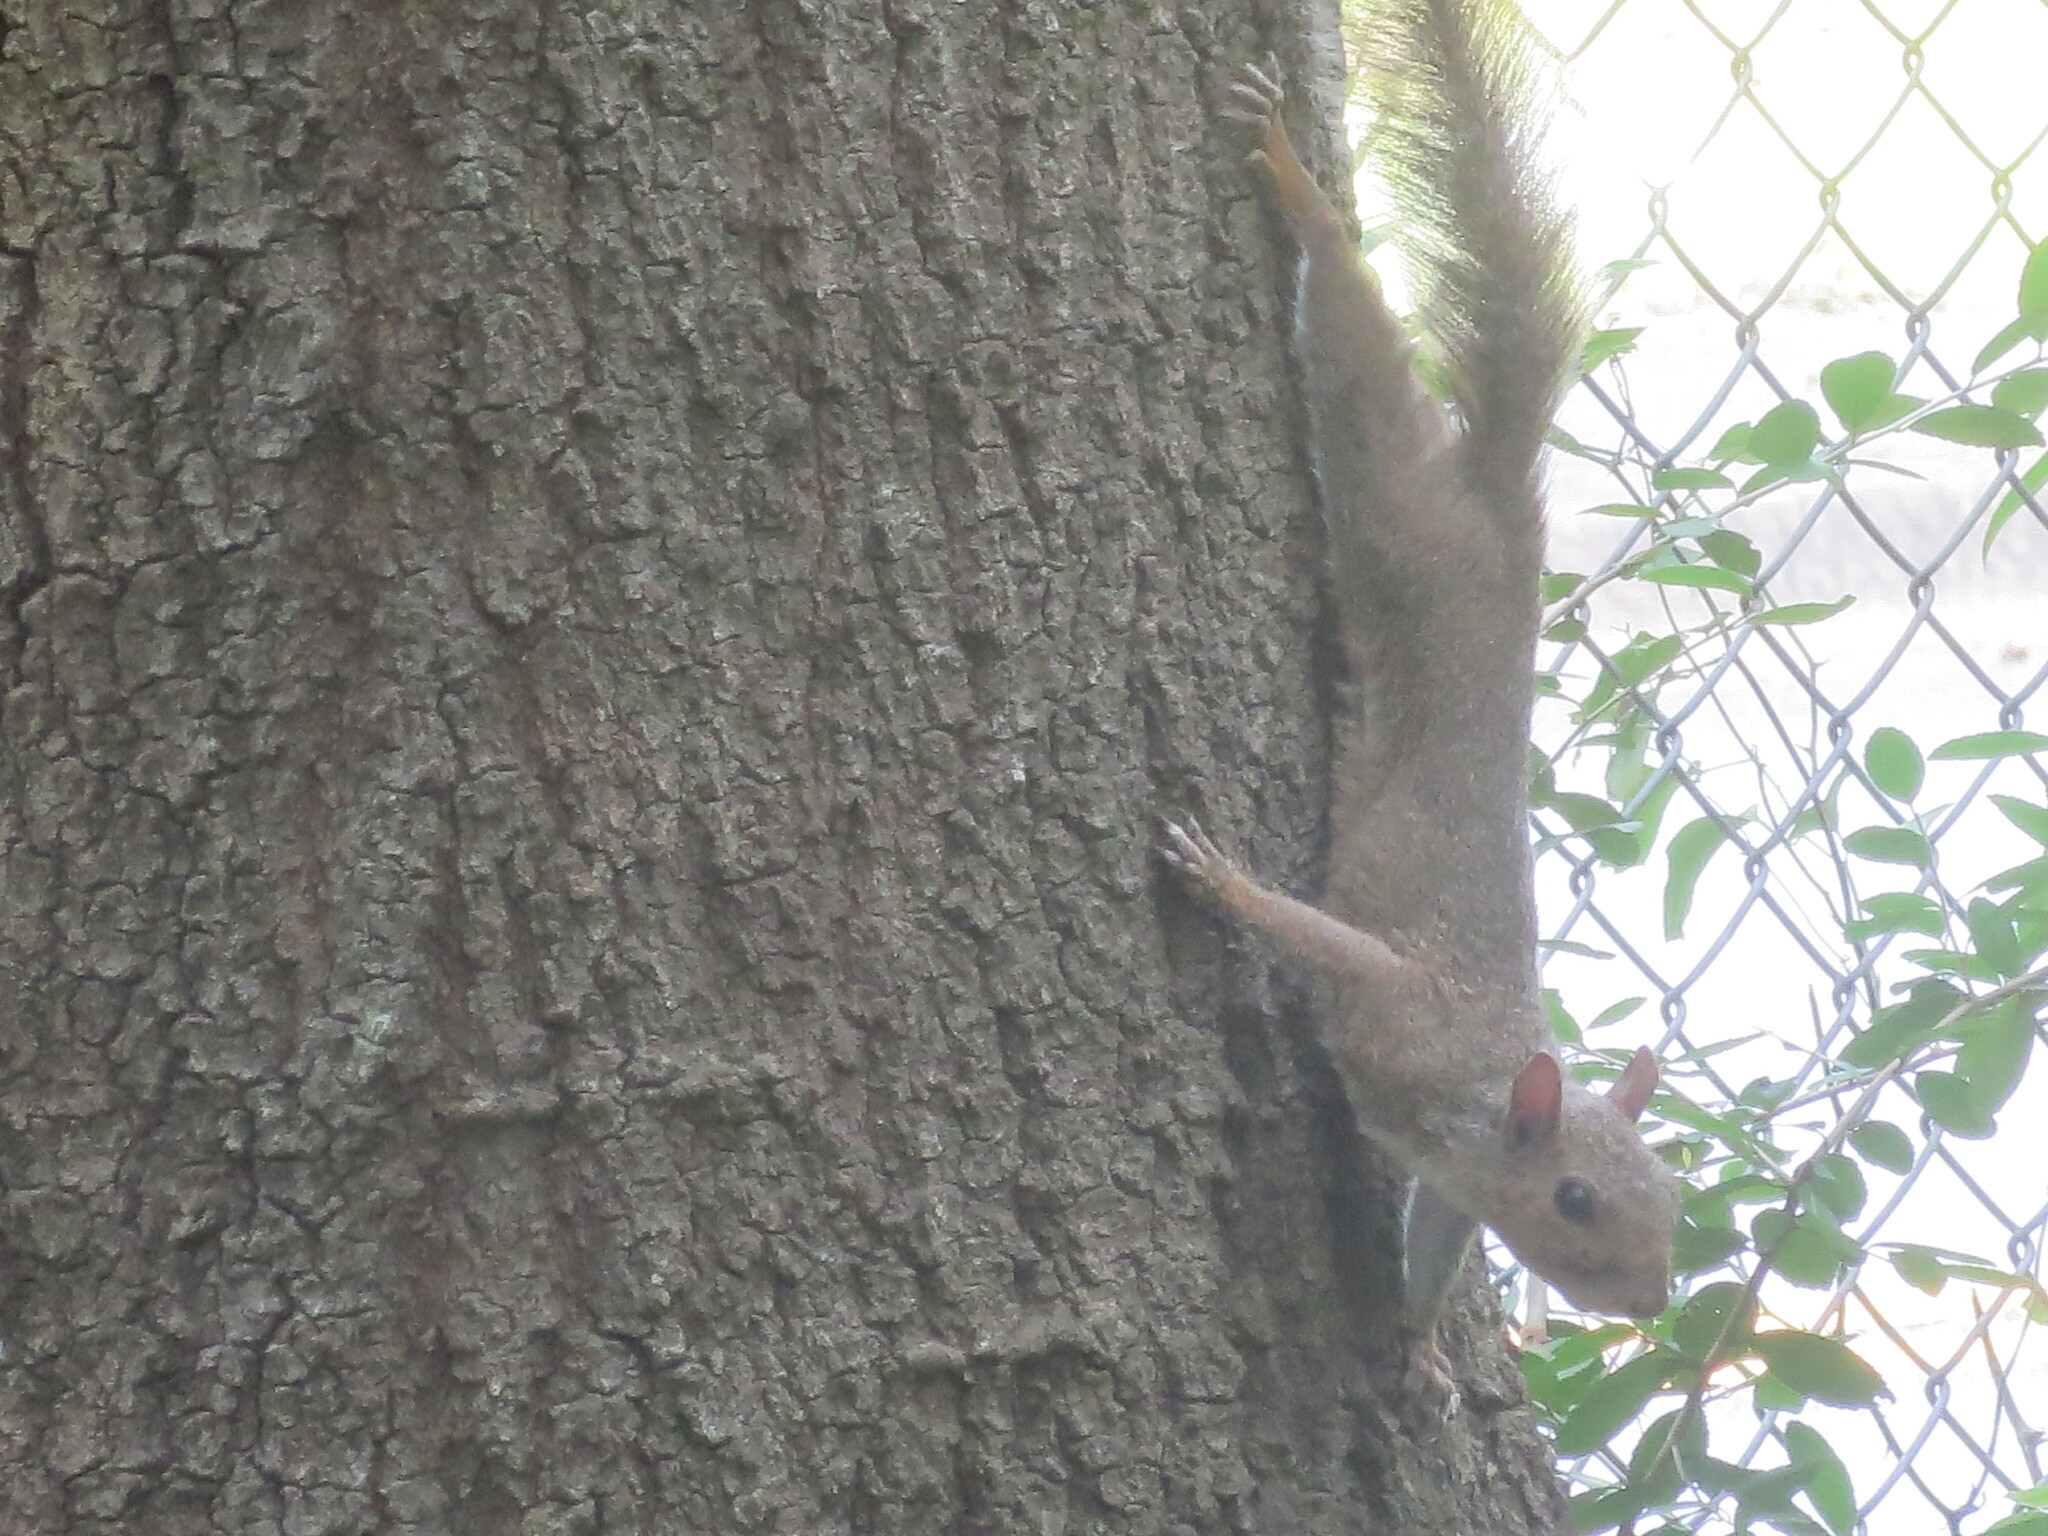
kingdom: Animalia
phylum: Chordata
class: Mammalia
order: Rodentia
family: Sciuridae
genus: Sciurus
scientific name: Sciurus carolinensis
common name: Eastern gray squirrel
